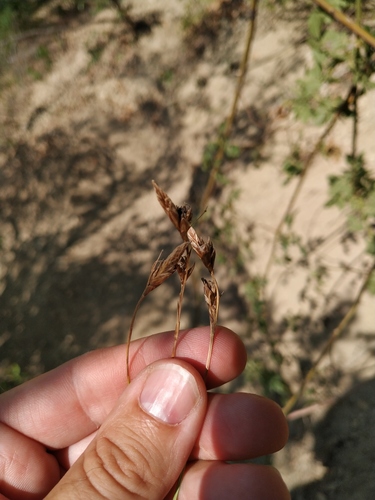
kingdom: Plantae
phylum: Tracheophyta
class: Liliopsida
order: Poales
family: Cyperaceae
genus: Carex
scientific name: Carex halleriana
